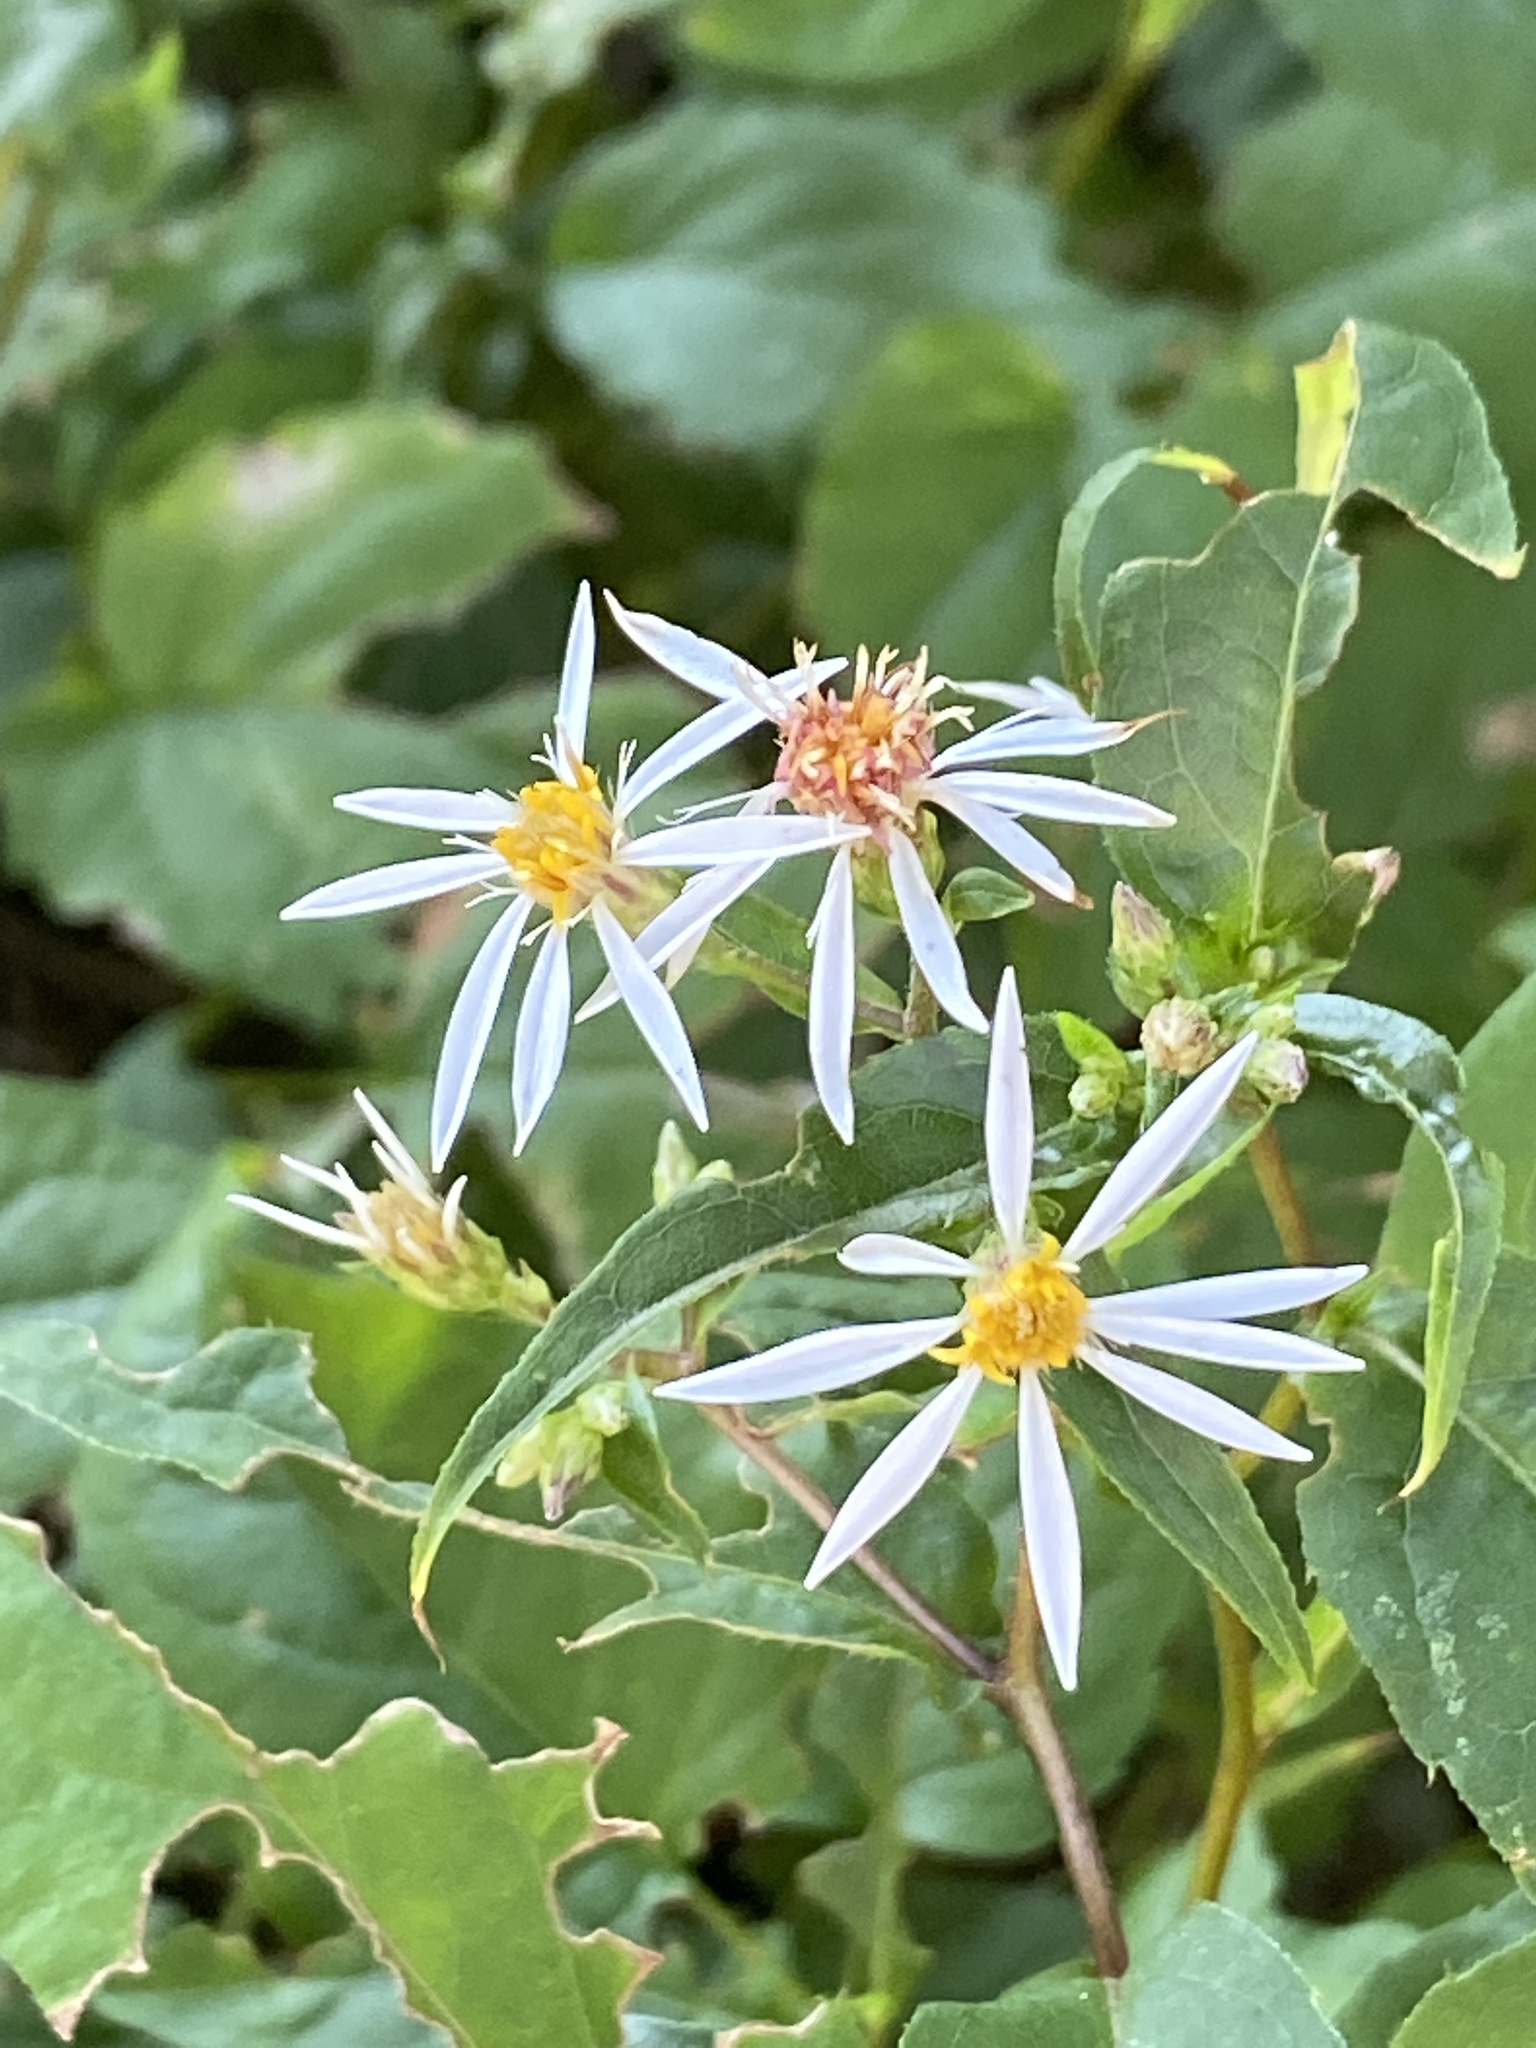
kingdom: Plantae
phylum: Tracheophyta
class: Magnoliopsida
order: Asterales
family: Asteraceae
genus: Eurybia
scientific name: Eurybia divaricata
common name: White wood aster
